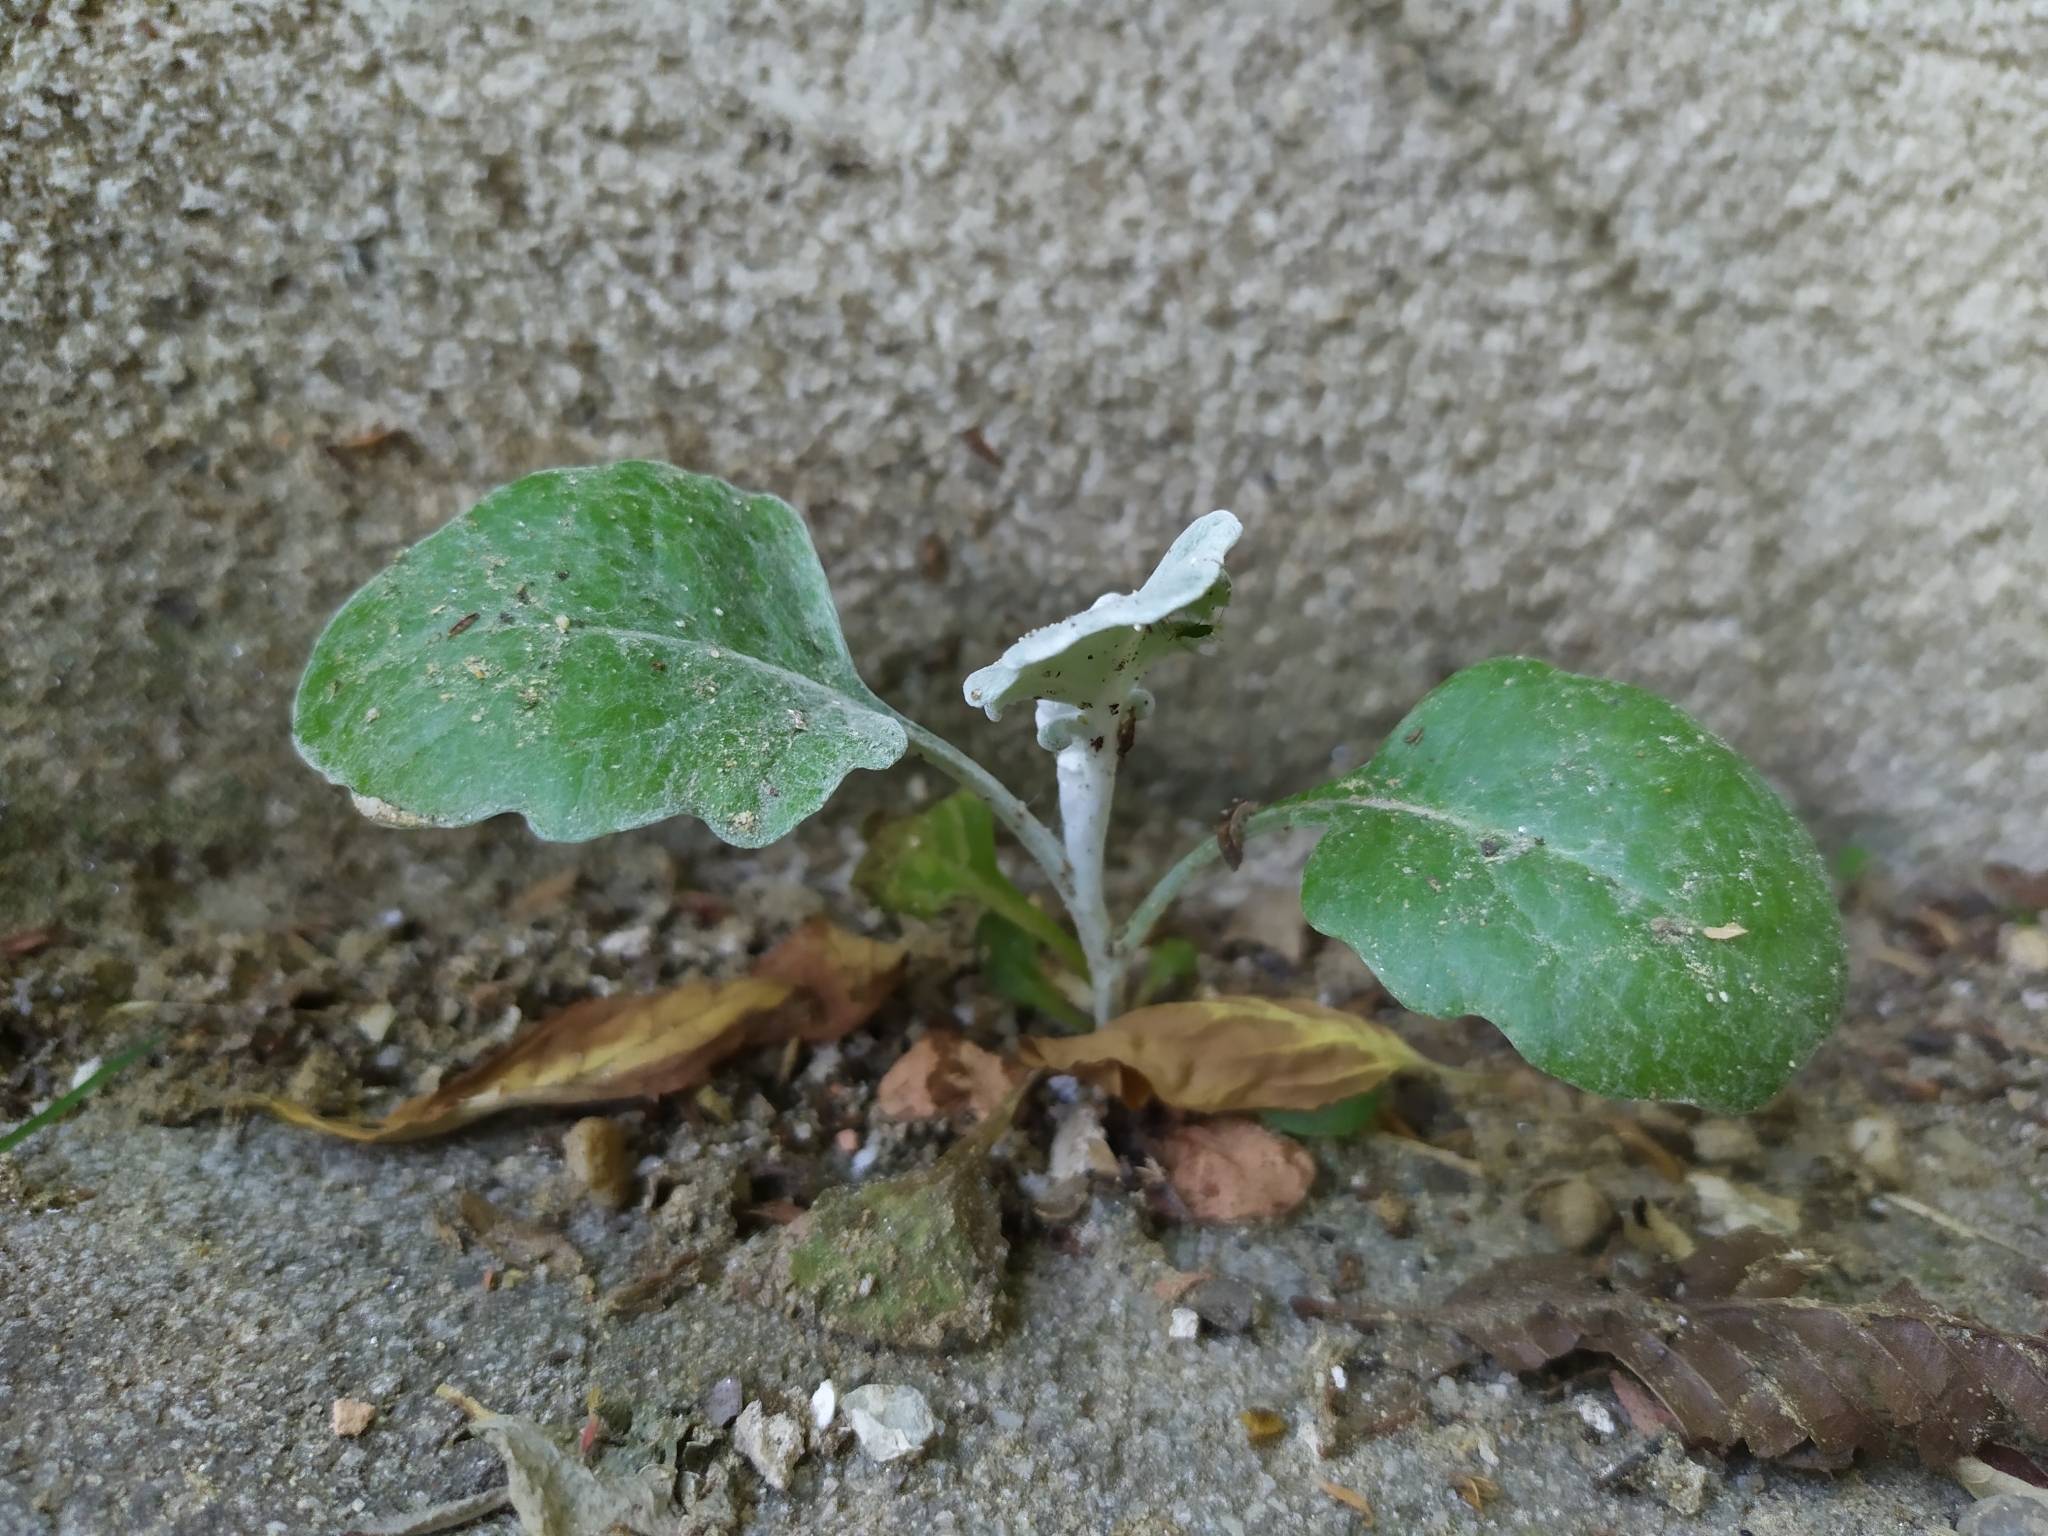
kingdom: Plantae
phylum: Tracheophyta
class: Magnoliopsida
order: Asterales
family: Asteraceae
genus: Jacobaea
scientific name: Jacobaea maritima
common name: Silver ragwort
